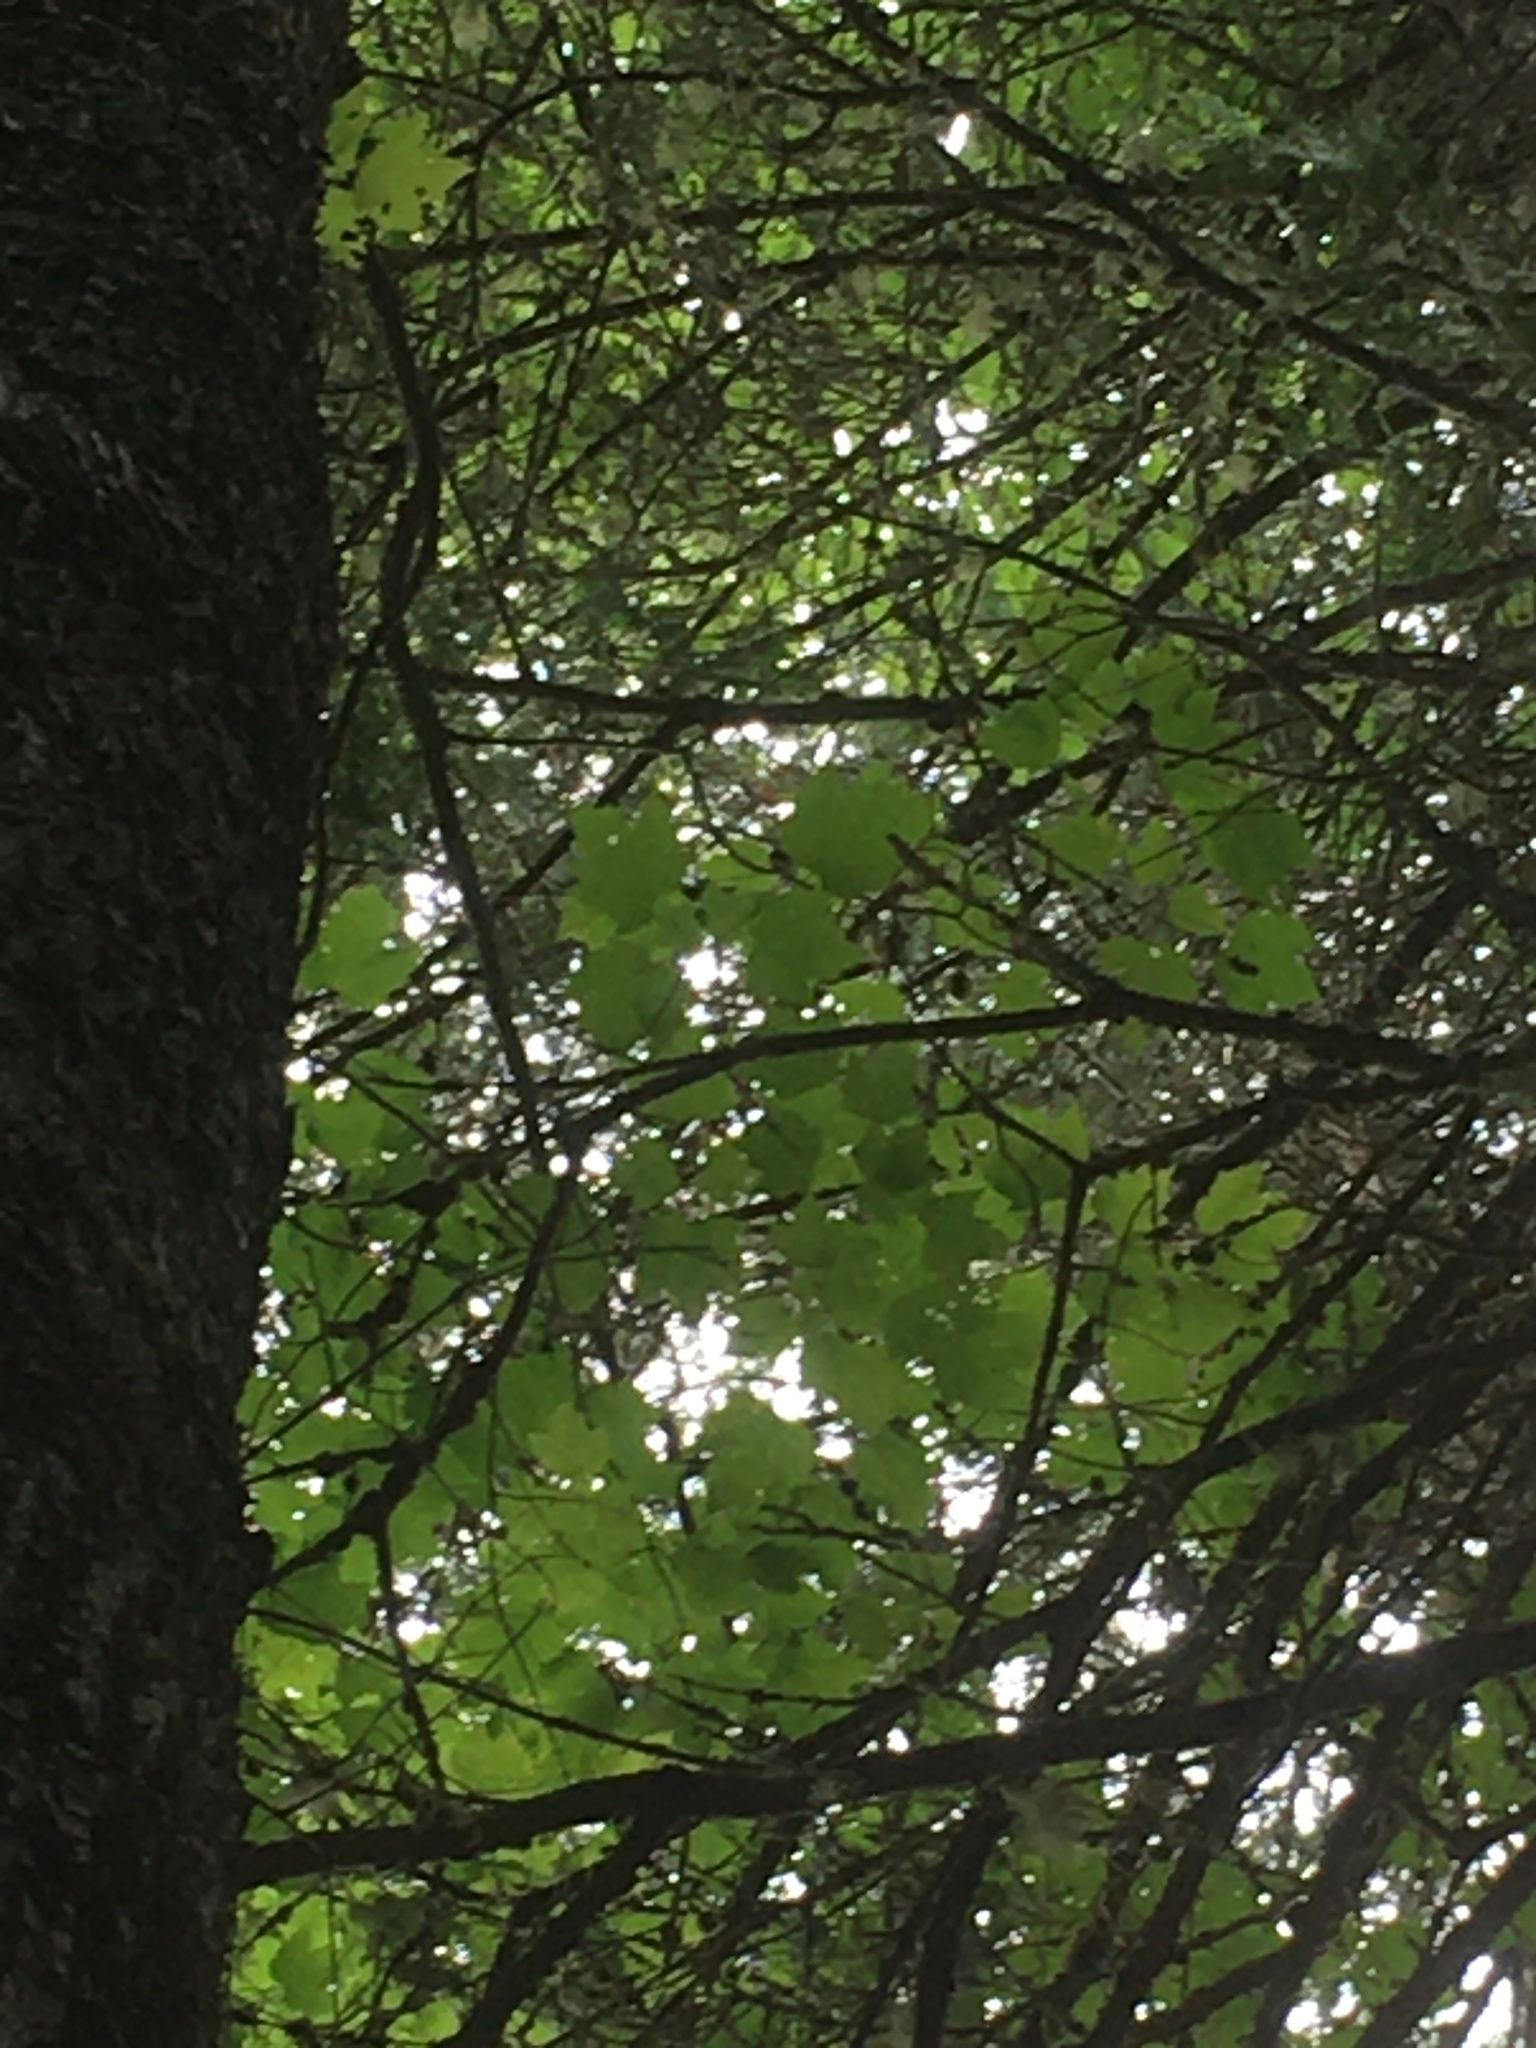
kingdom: Plantae
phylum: Tracheophyta
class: Magnoliopsida
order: Sapindales
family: Sapindaceae
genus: Acer
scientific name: Acer rubrum
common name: Red maple
